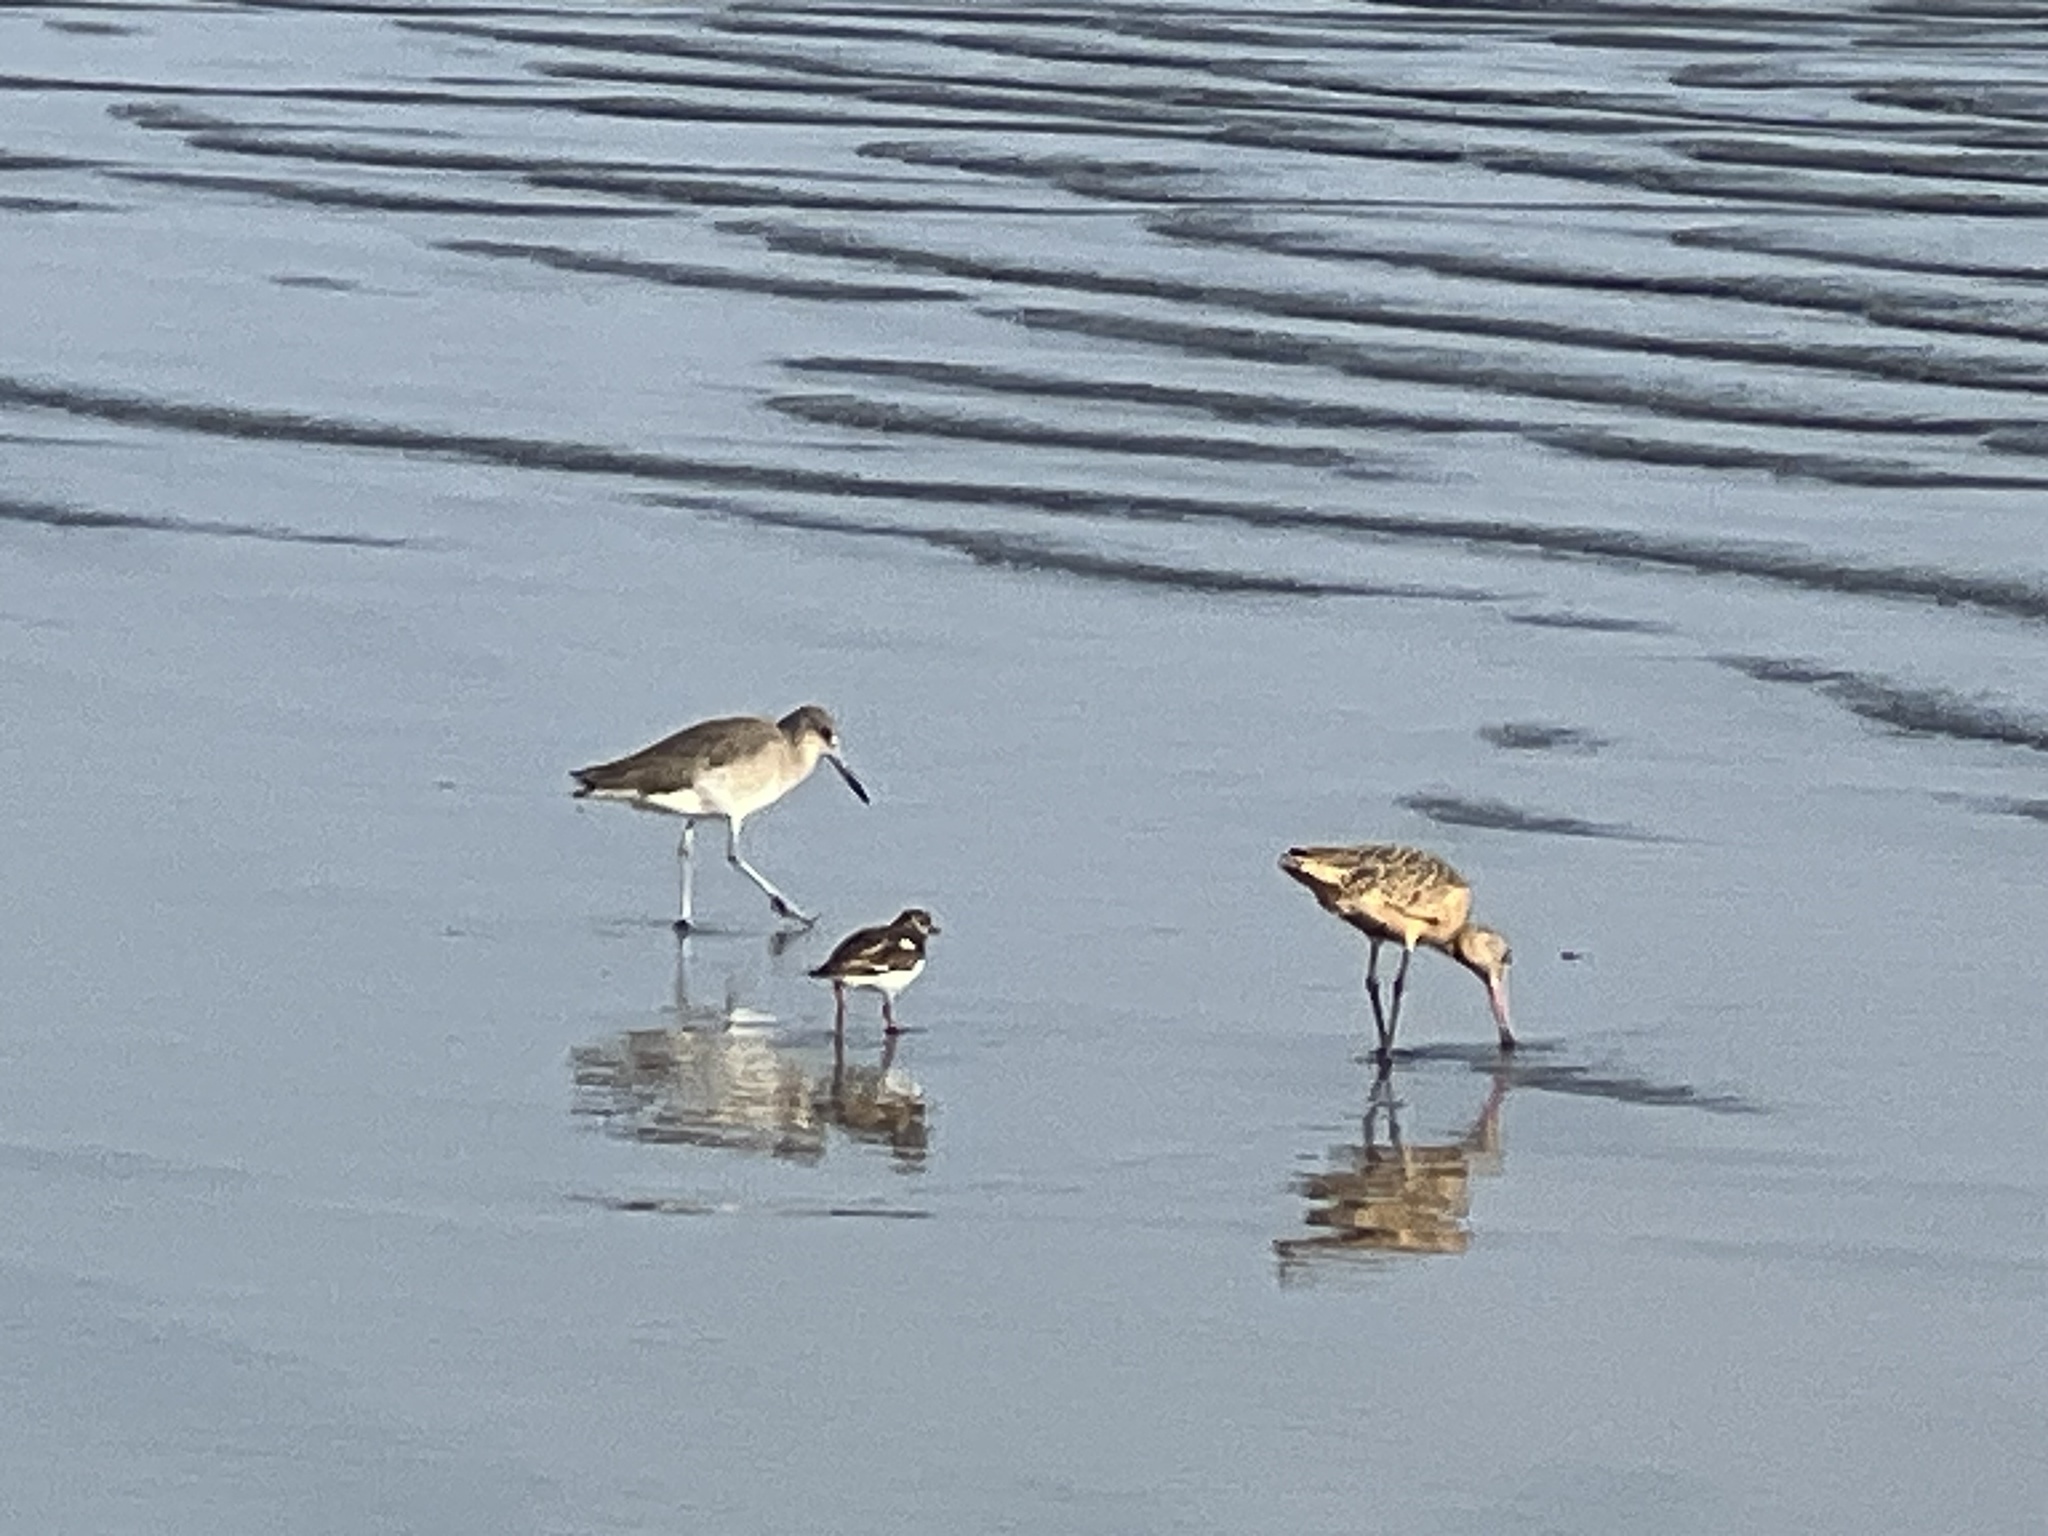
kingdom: Animalia
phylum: Chordata
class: Aves
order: Charadriiformes
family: Scolopacidae
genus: Tringa
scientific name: Tringa semipalmata
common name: Willet
